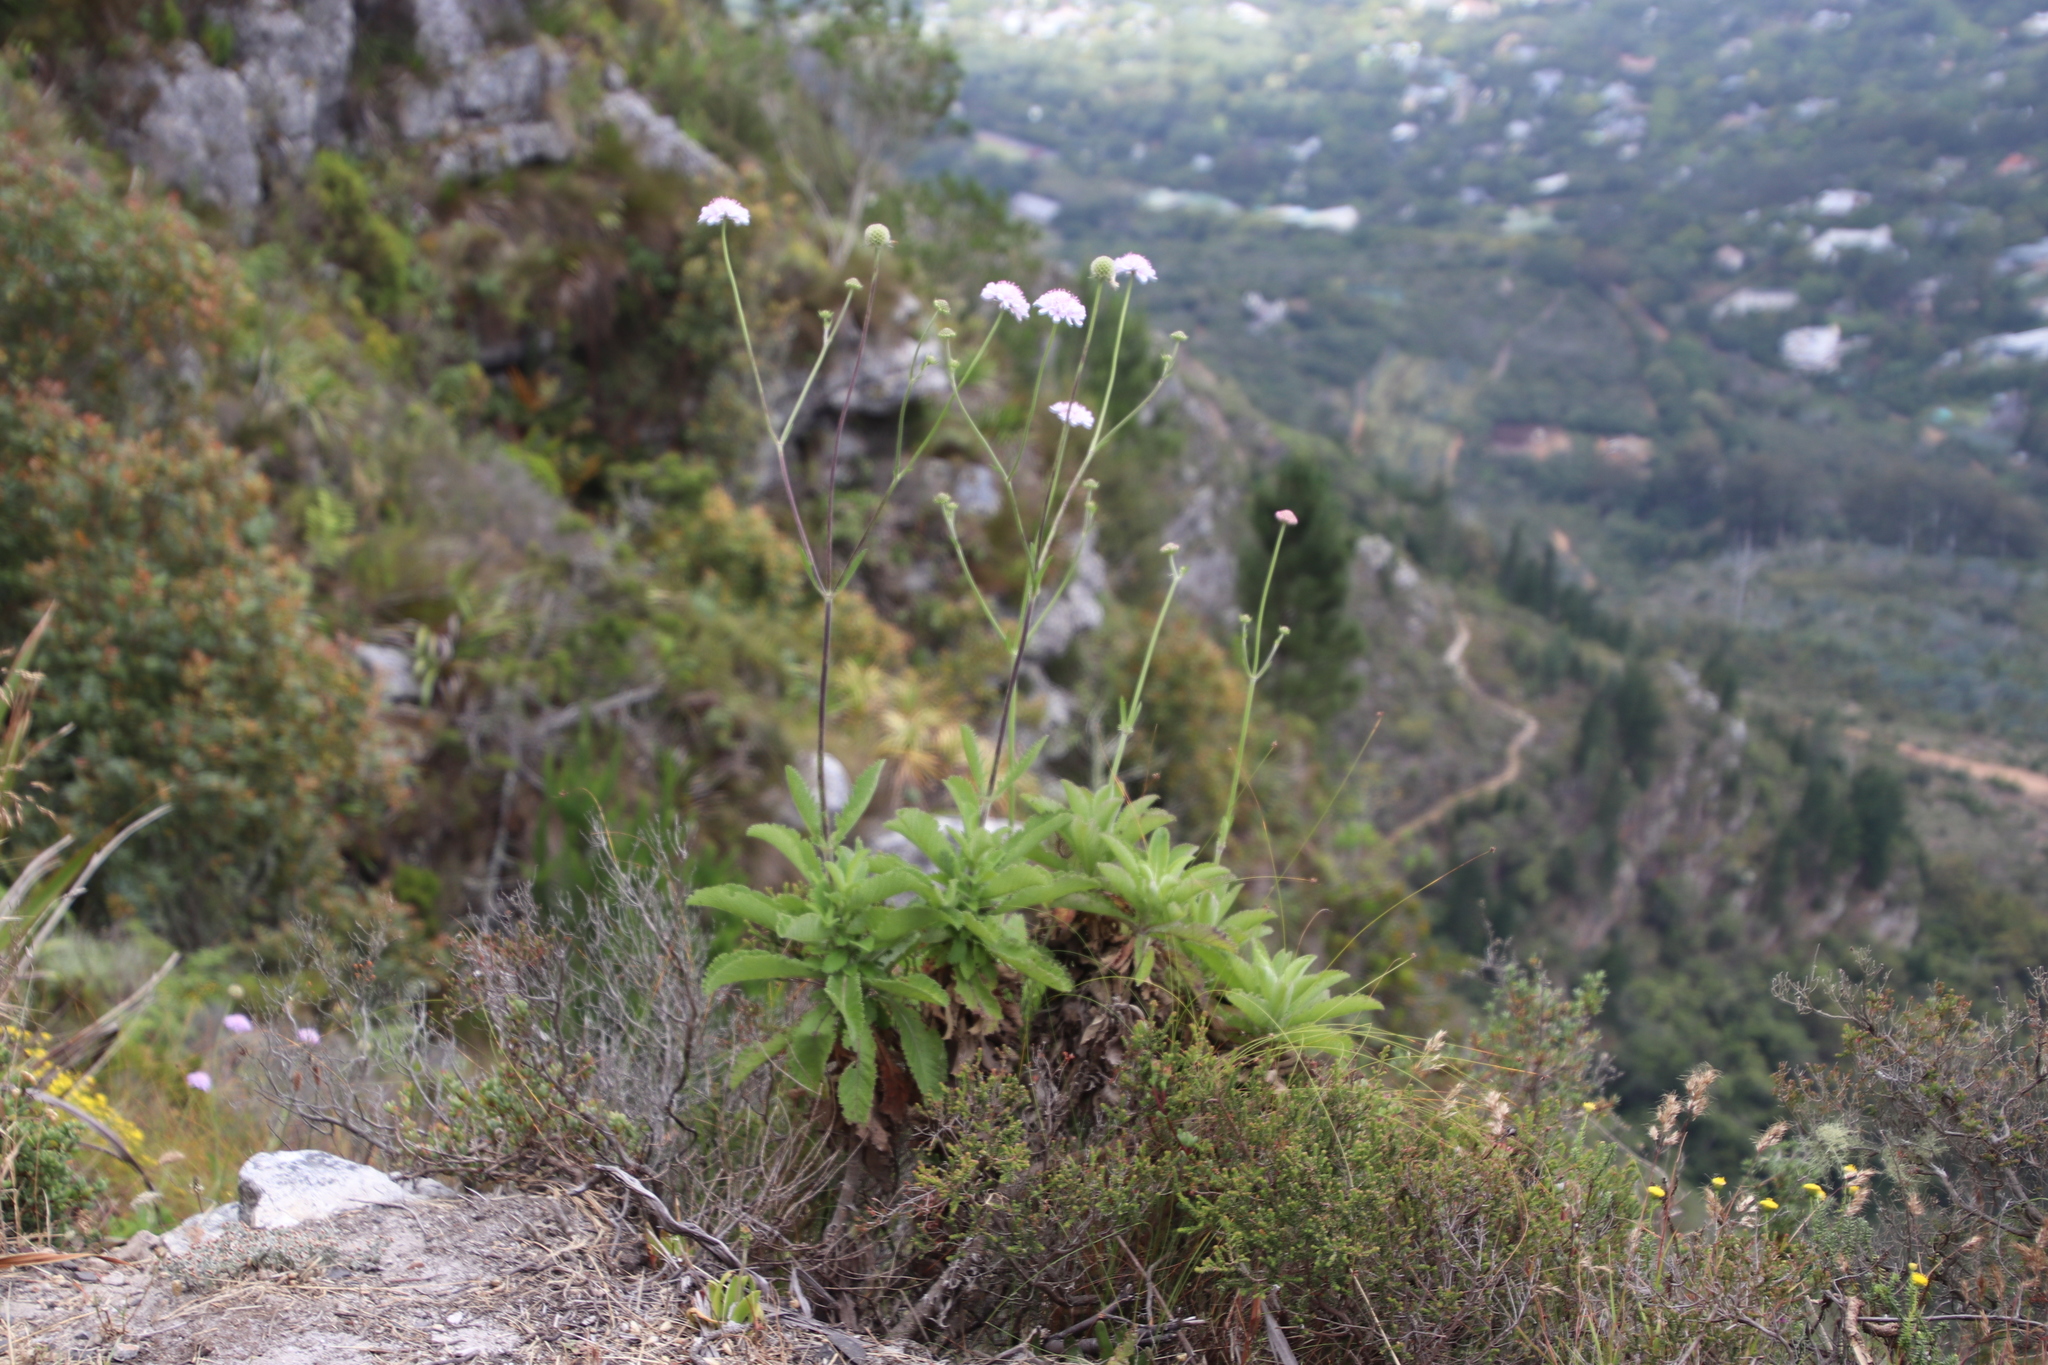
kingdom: Plantae
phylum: Tracheophyta
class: Magnoliopsida
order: Dipsacales
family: Caprifoliaceae
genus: Scabiosa
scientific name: Scabiosa africana
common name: Cape scabious
